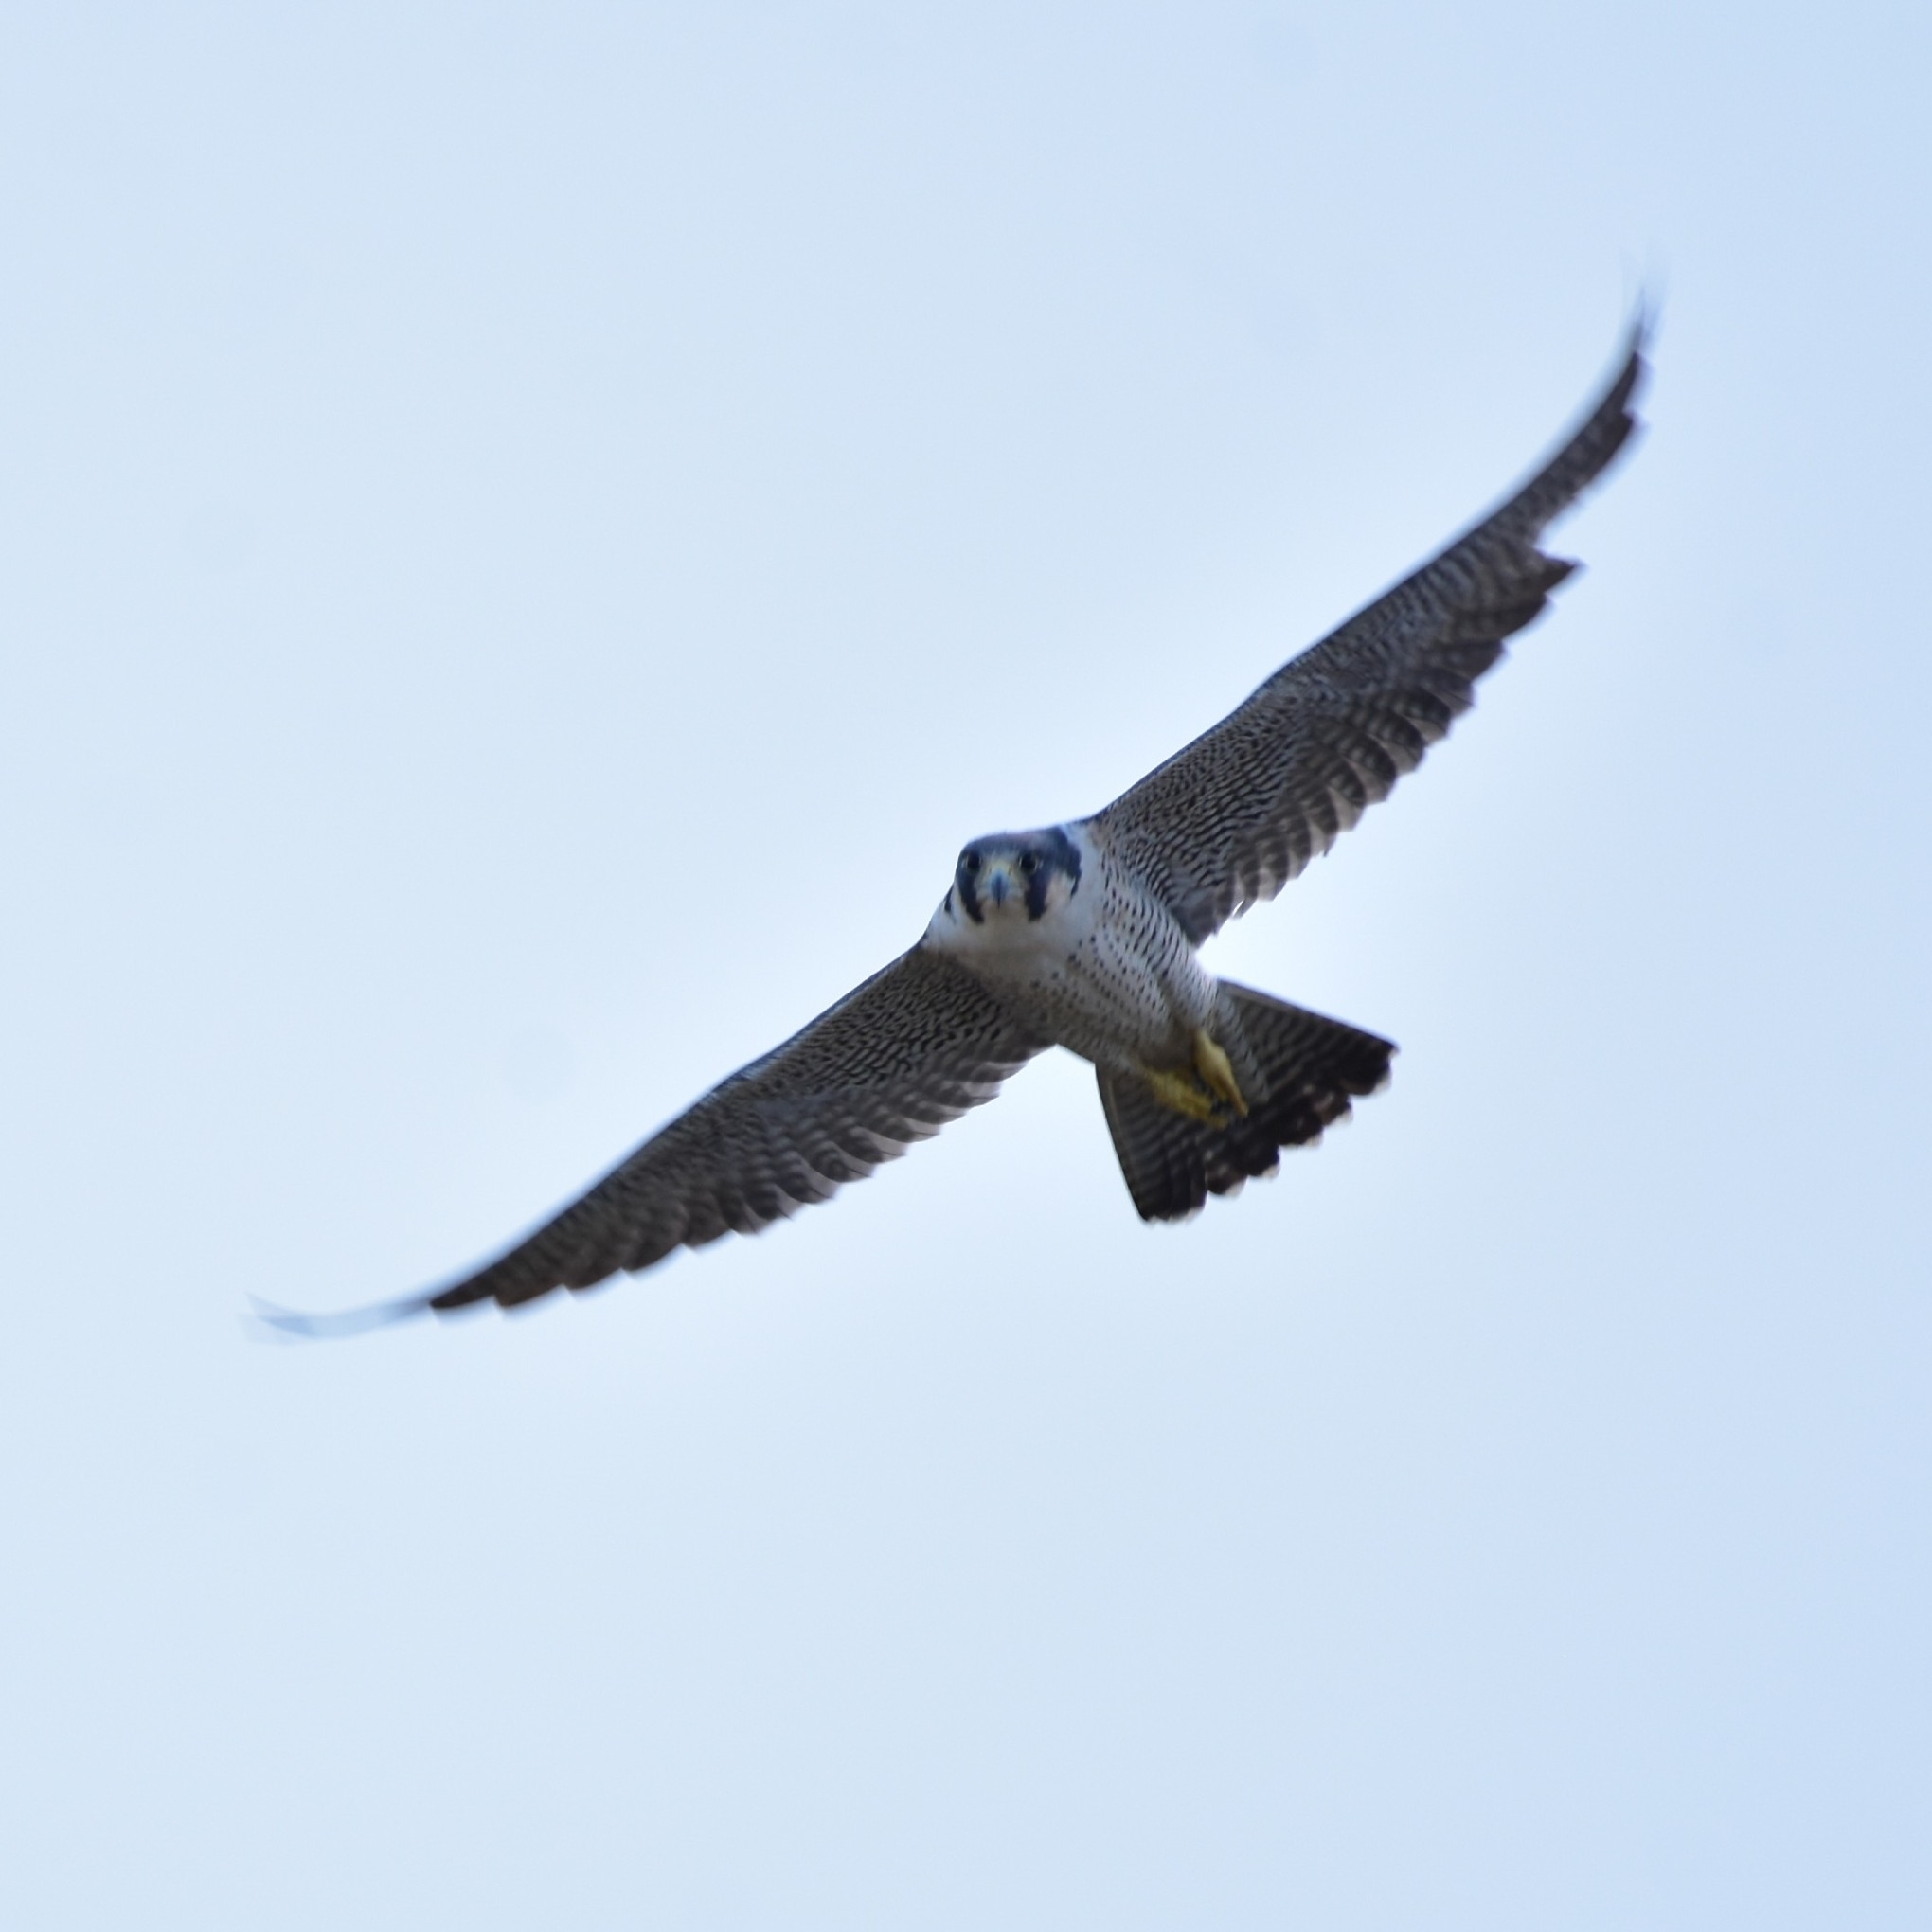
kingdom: Animalia
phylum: Chordata
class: Aves
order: Falconiformes
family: Falconidae
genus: Falco
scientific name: Falco peregrinus
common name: Peregrine falcon
